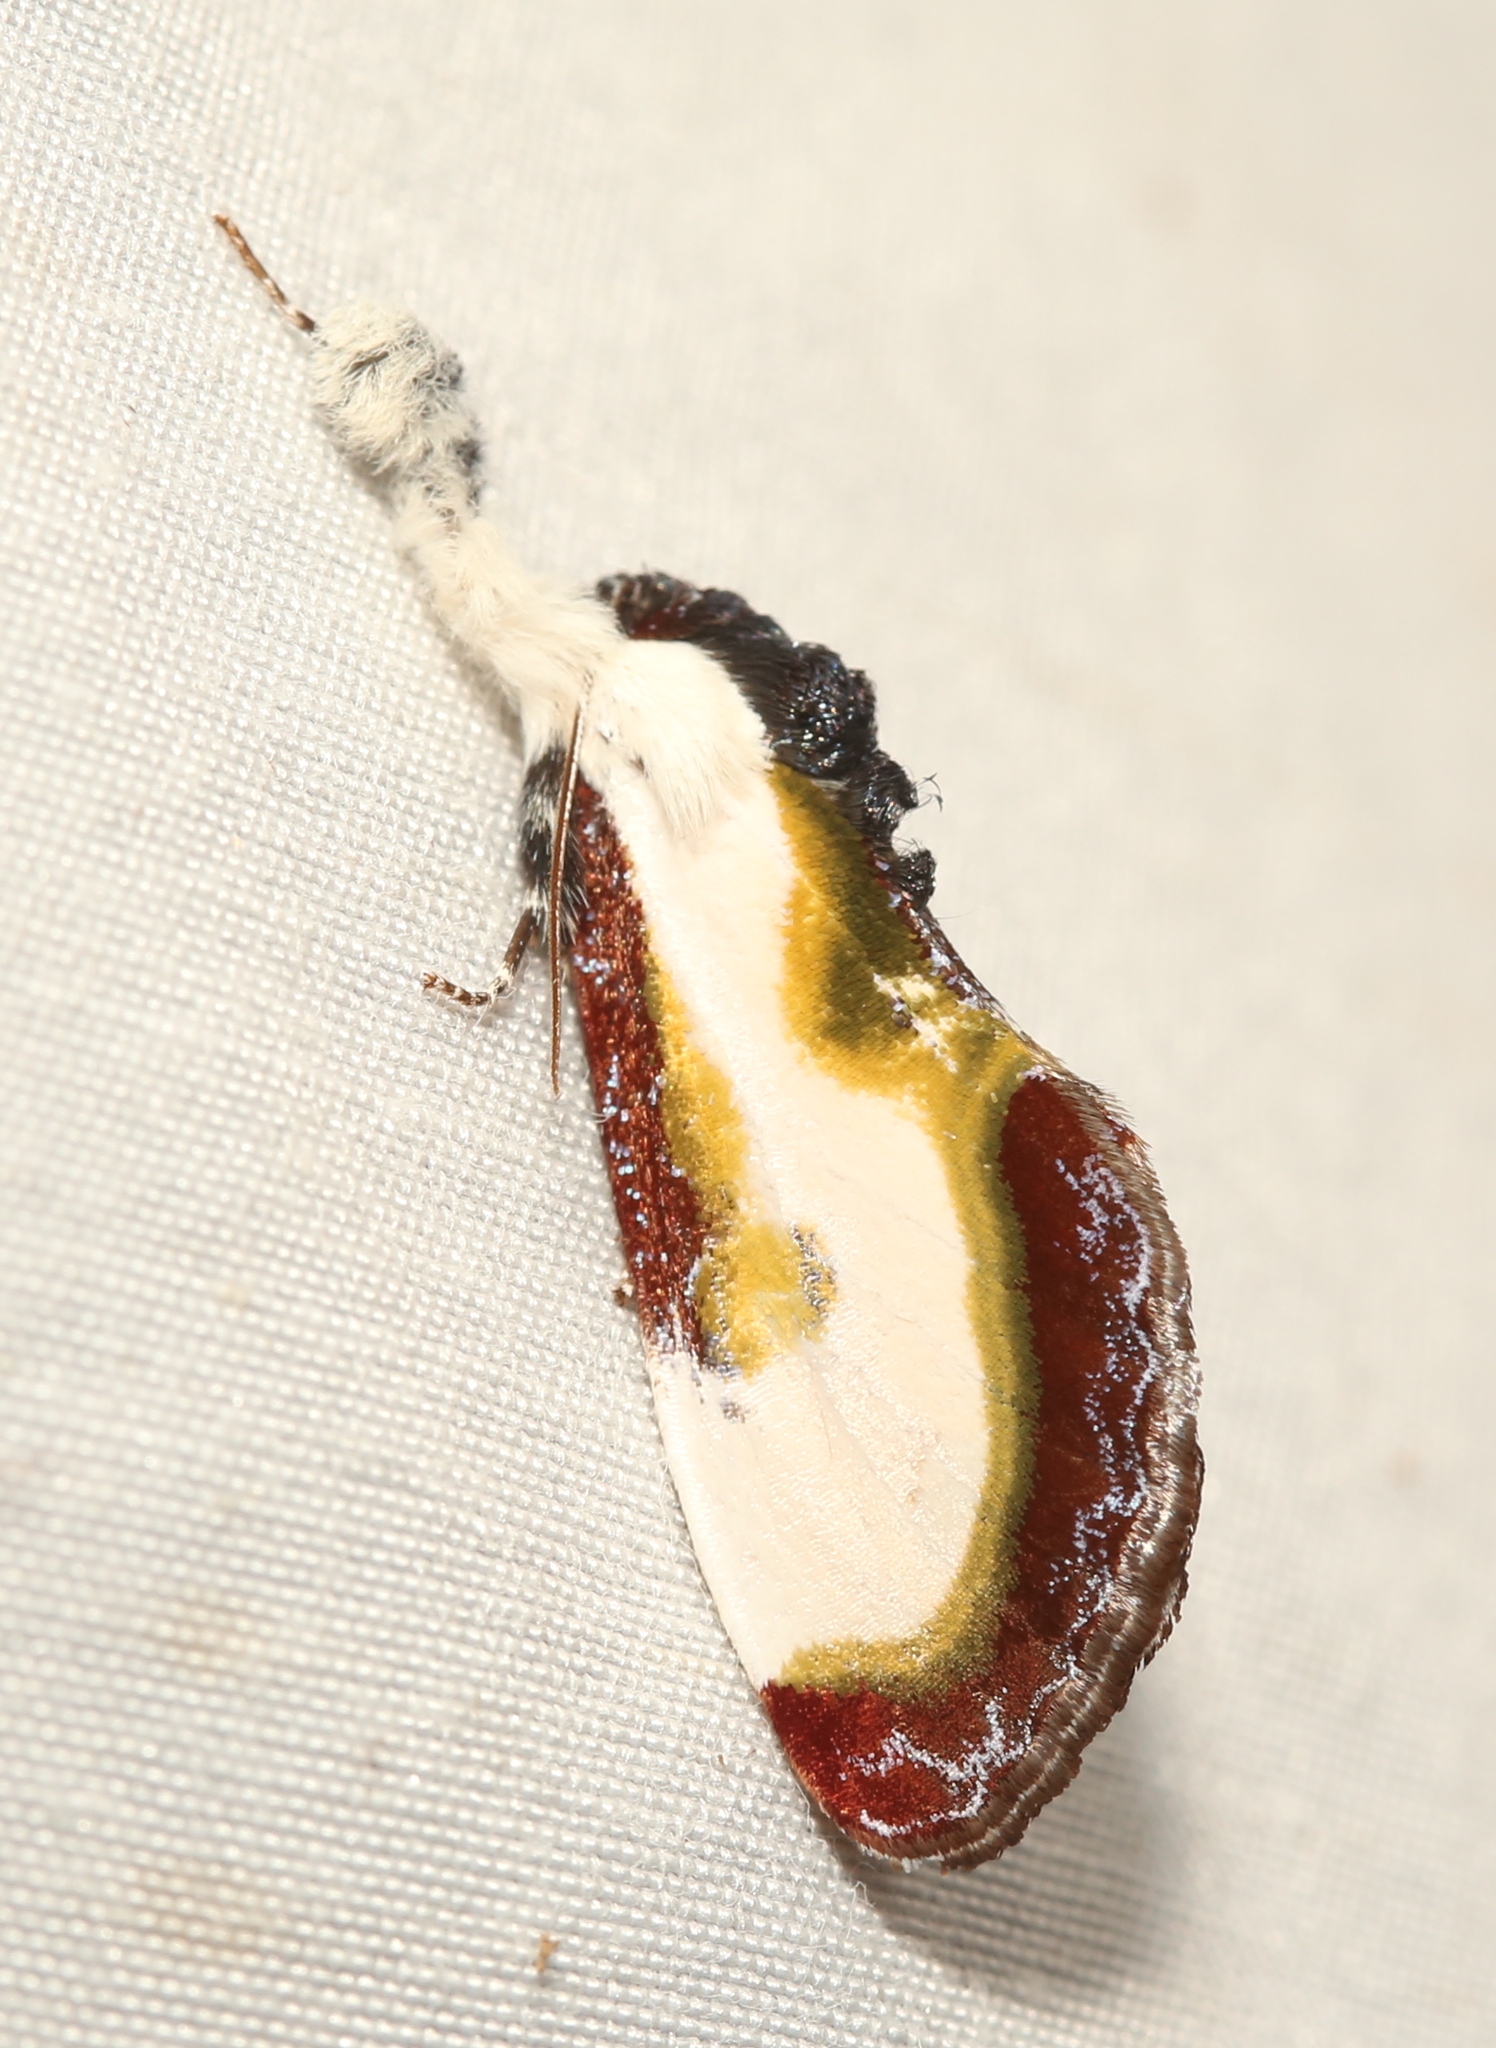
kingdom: Animalia
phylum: Arthropoda
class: Insecta
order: Lepidoptera
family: Noctuidae
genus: Eudryas
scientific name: Eudryas grata
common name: Beautiful wood-nymph
